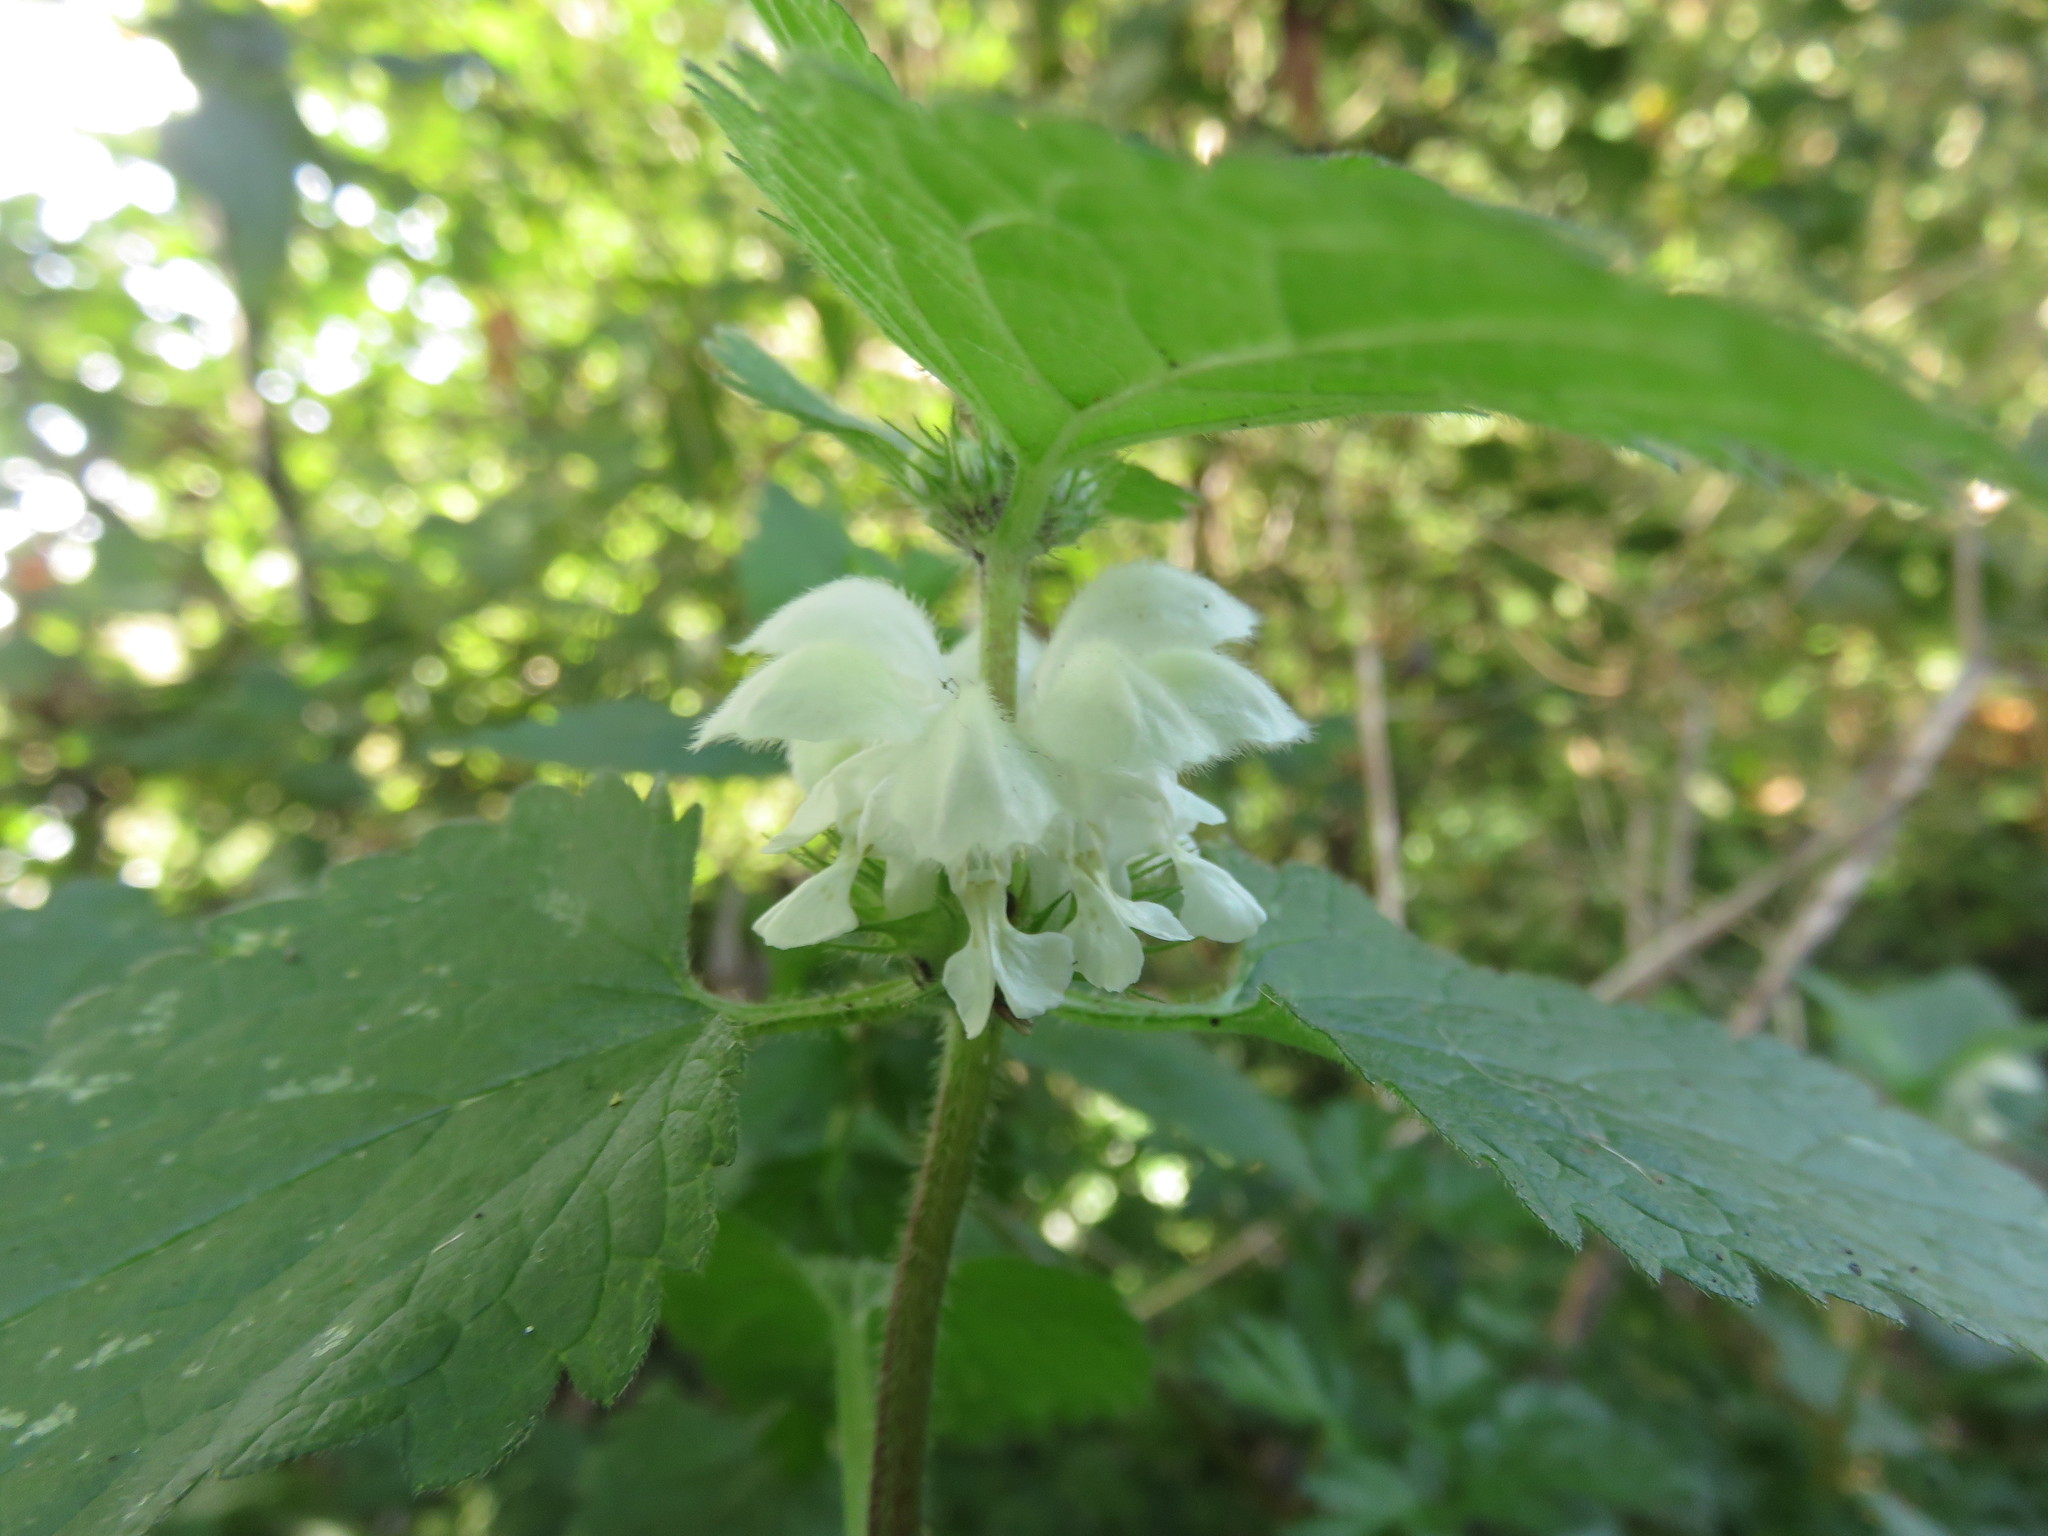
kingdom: Plantae
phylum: Tracheophyta
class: Magnoliopsida
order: Lamiales
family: Lamiaceae
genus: Lamium
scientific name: Lamium album
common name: White dead-nettle
